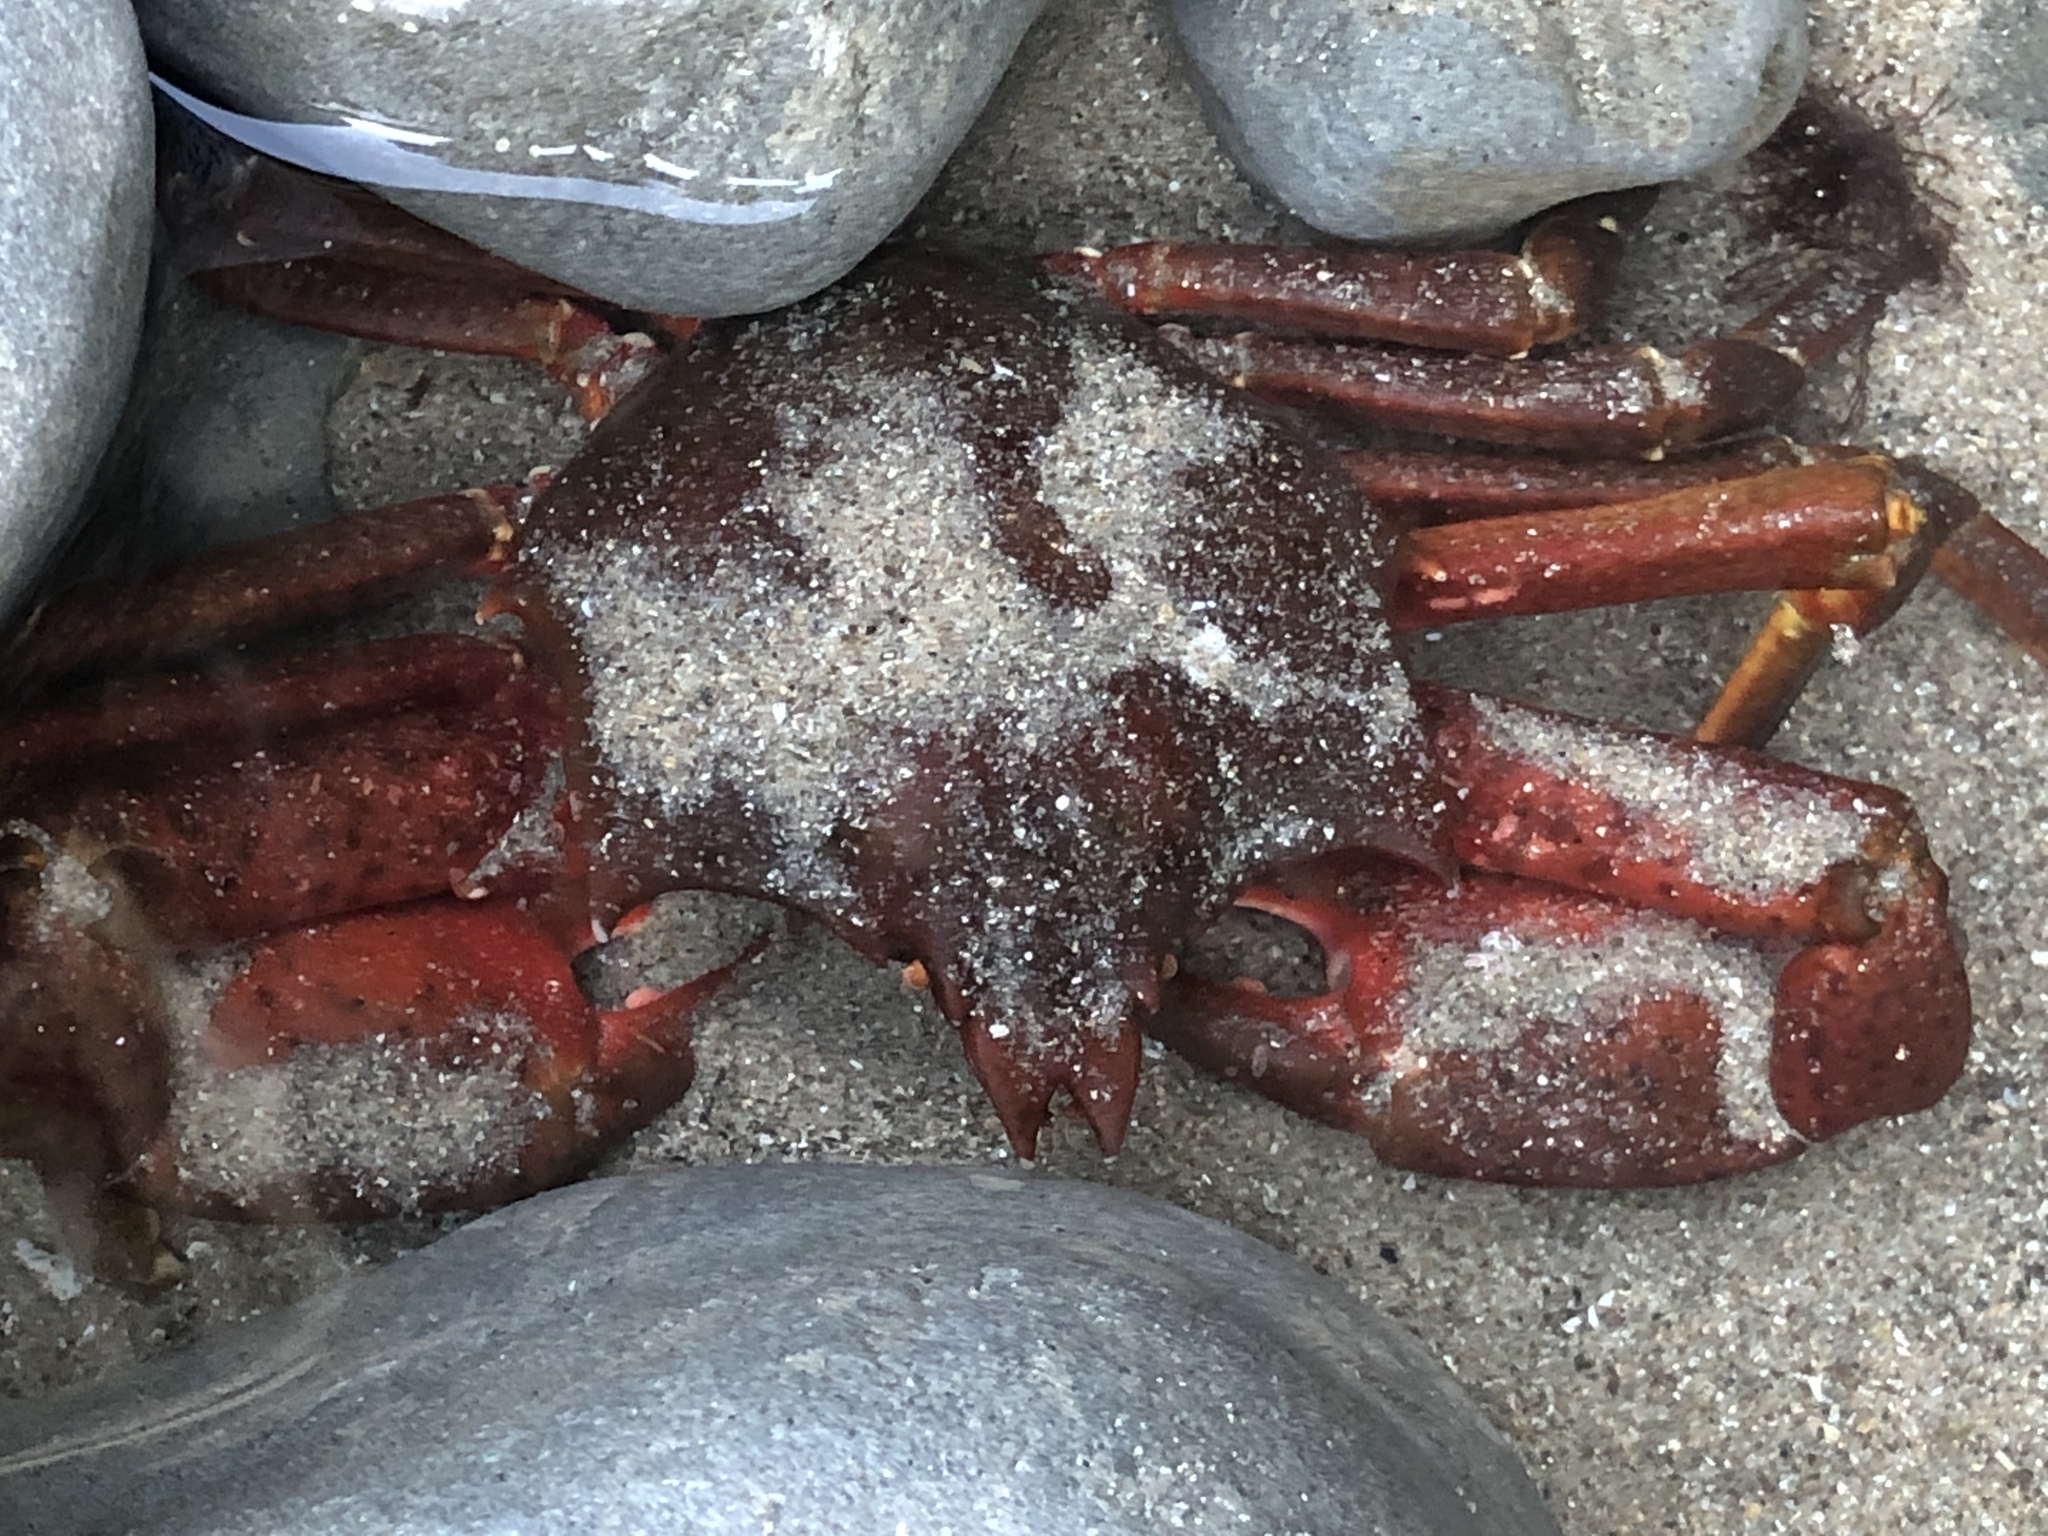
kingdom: Animalia
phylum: Arthropoda
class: Malacostraca
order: Decapoda
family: Epialtidae
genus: Pugettia
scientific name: Pugettia producta
